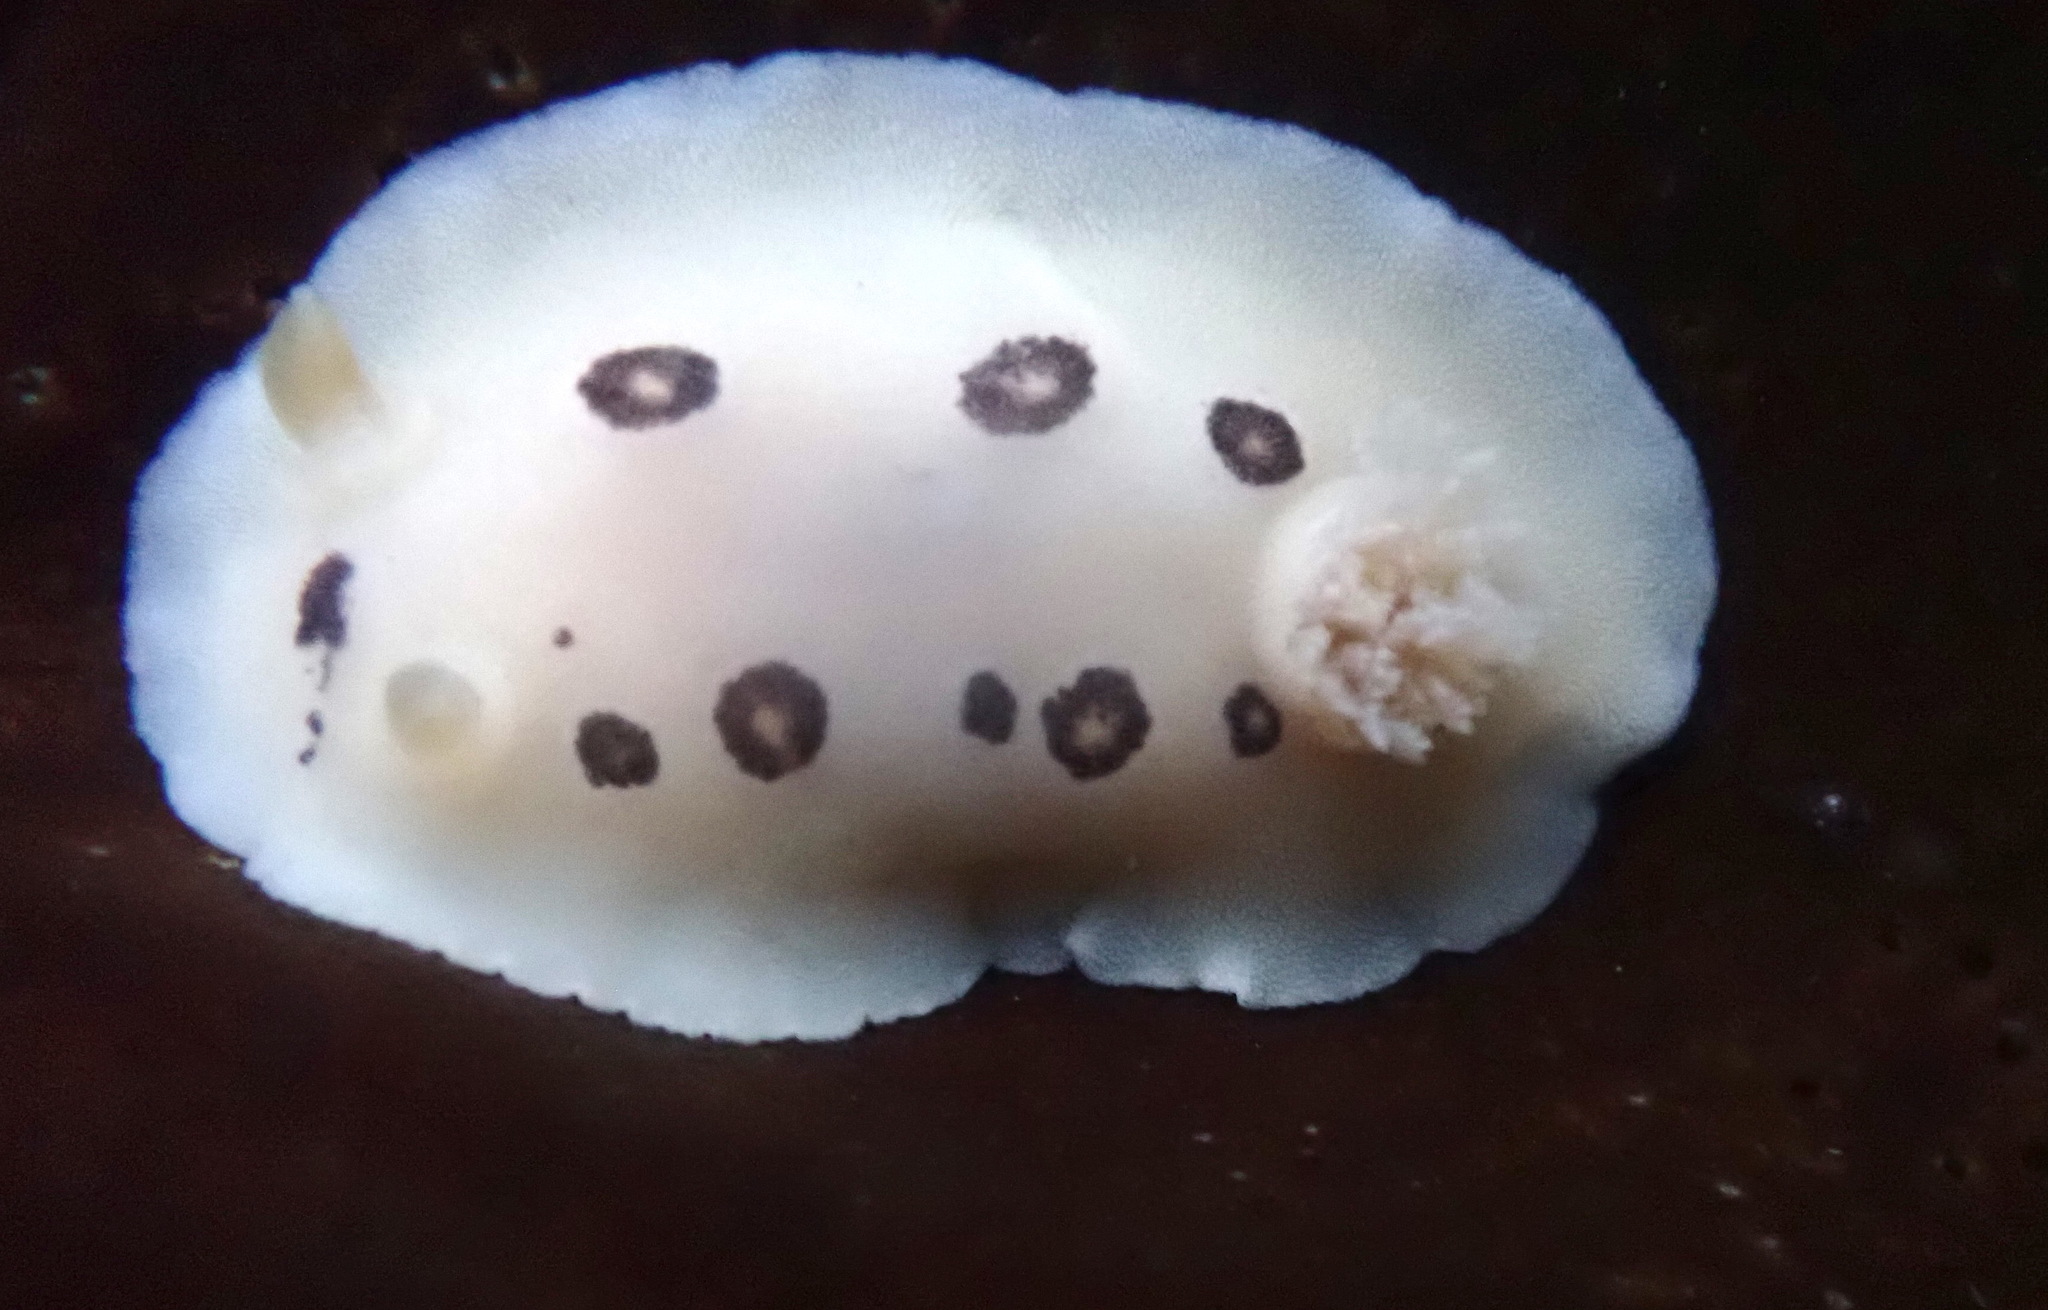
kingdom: Animalia
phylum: Mollusca
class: Gastropoda
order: Nudibranchia
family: Discodorididae
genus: Diaulula
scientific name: Diaulula sandiegensis
